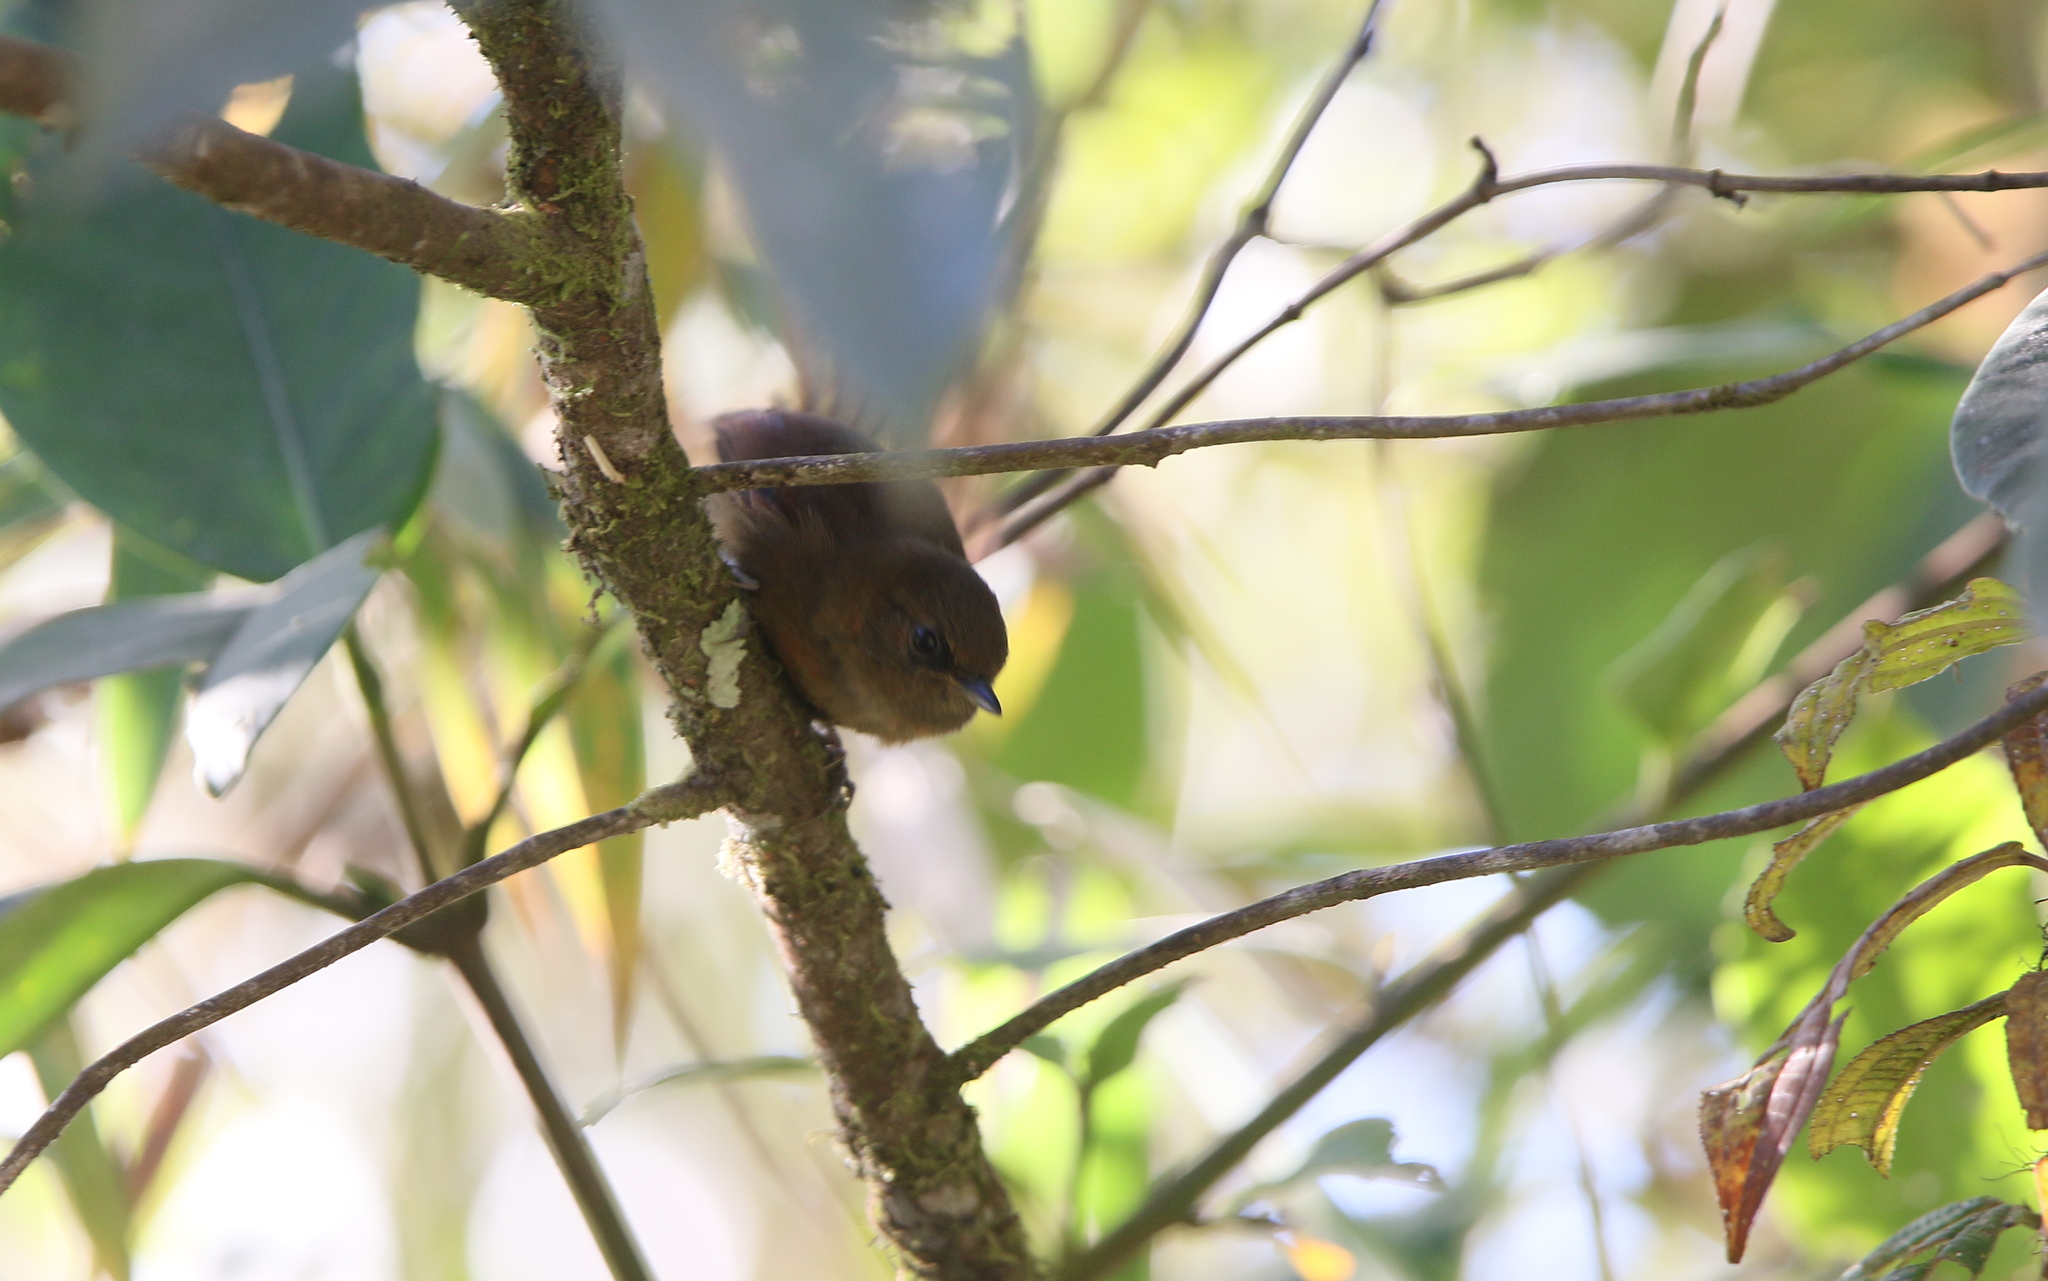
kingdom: Animalia
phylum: Chordata
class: Aves
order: Passeriformes
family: Furnariidae
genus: Synallaxis
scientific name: Synallaxis unirufa
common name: Rufous spinetail
